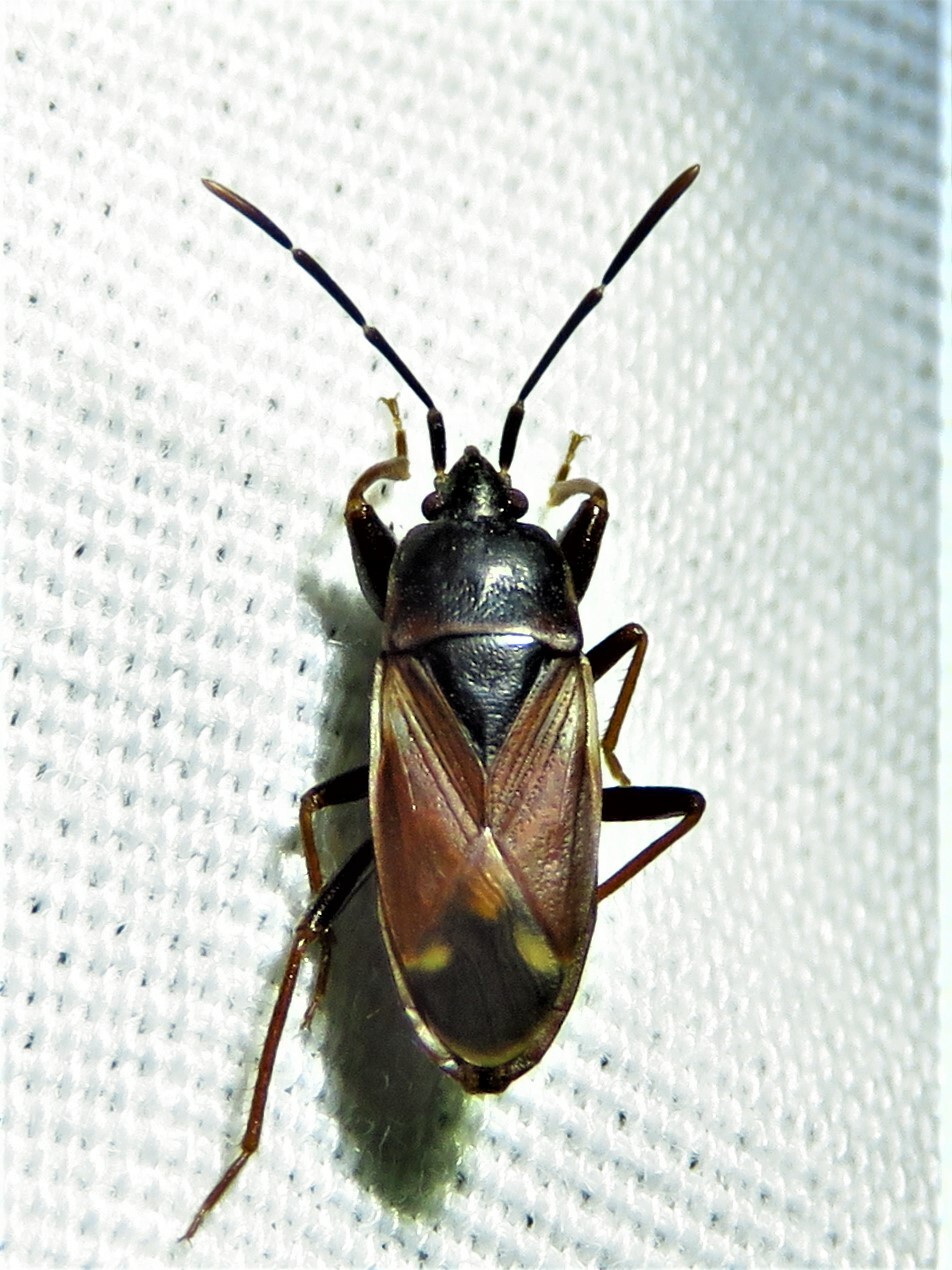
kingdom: Animalia
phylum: Arthropoda
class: Insecta
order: Hemiptera
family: Rhyparochromidae
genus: Eremocoris
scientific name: Eremocoris depressus
